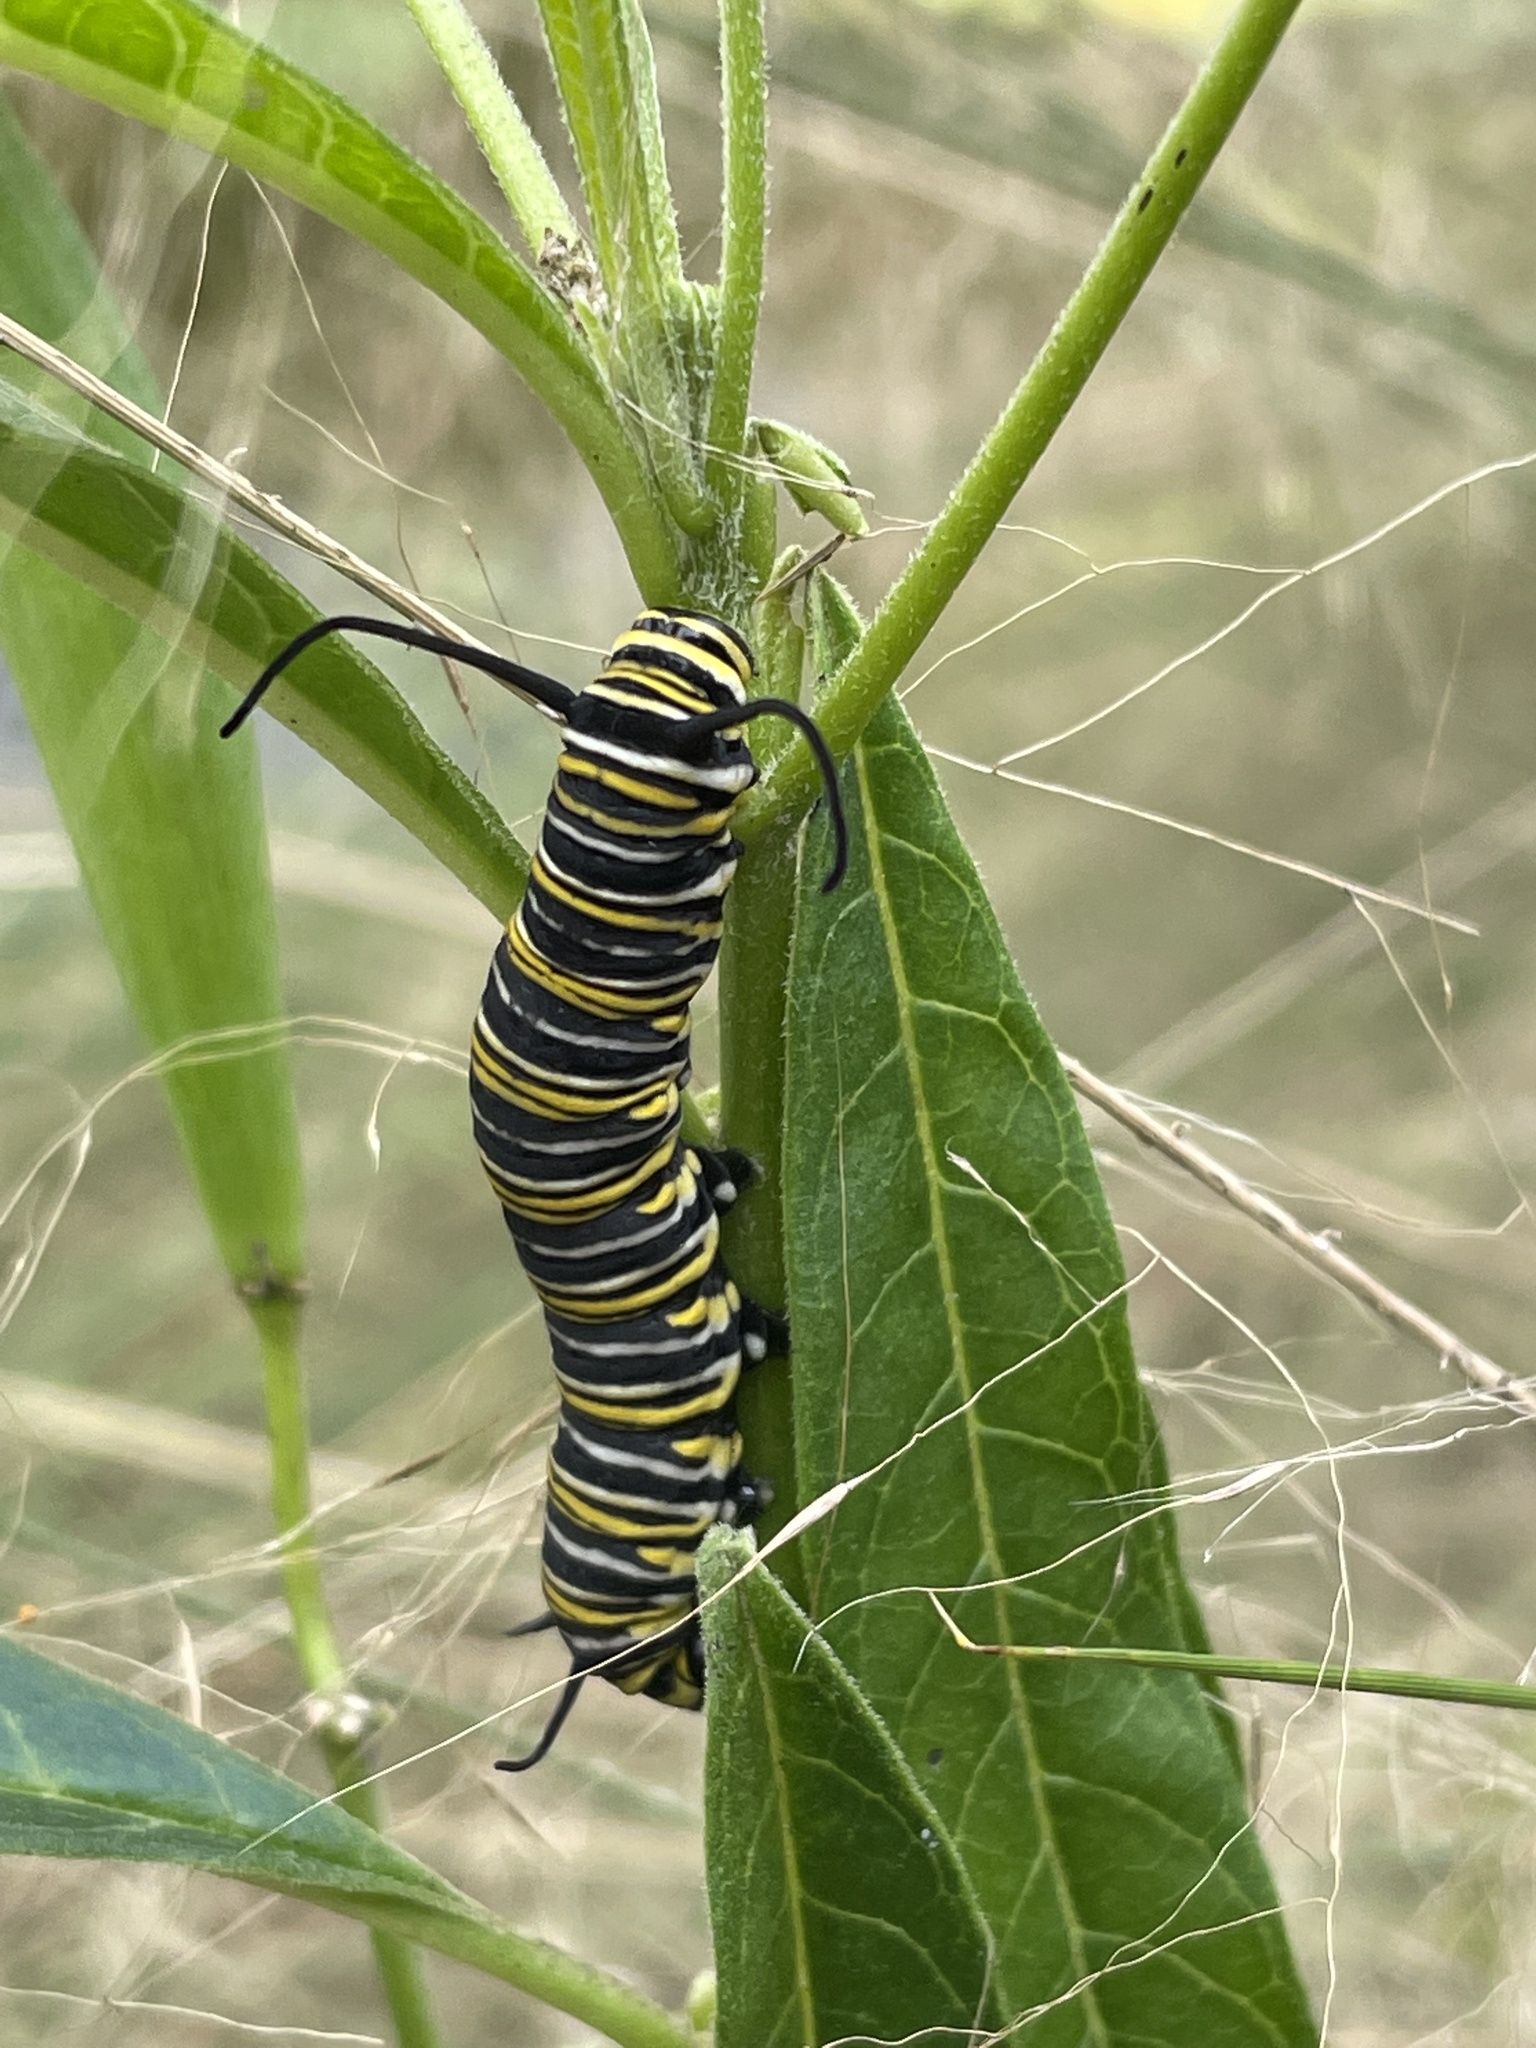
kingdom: Animalia
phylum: Arthropoda
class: Insecta
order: Lepidoptera
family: Nymphalidae
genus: Danaus
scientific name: Danaus plexippus
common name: Monarch
